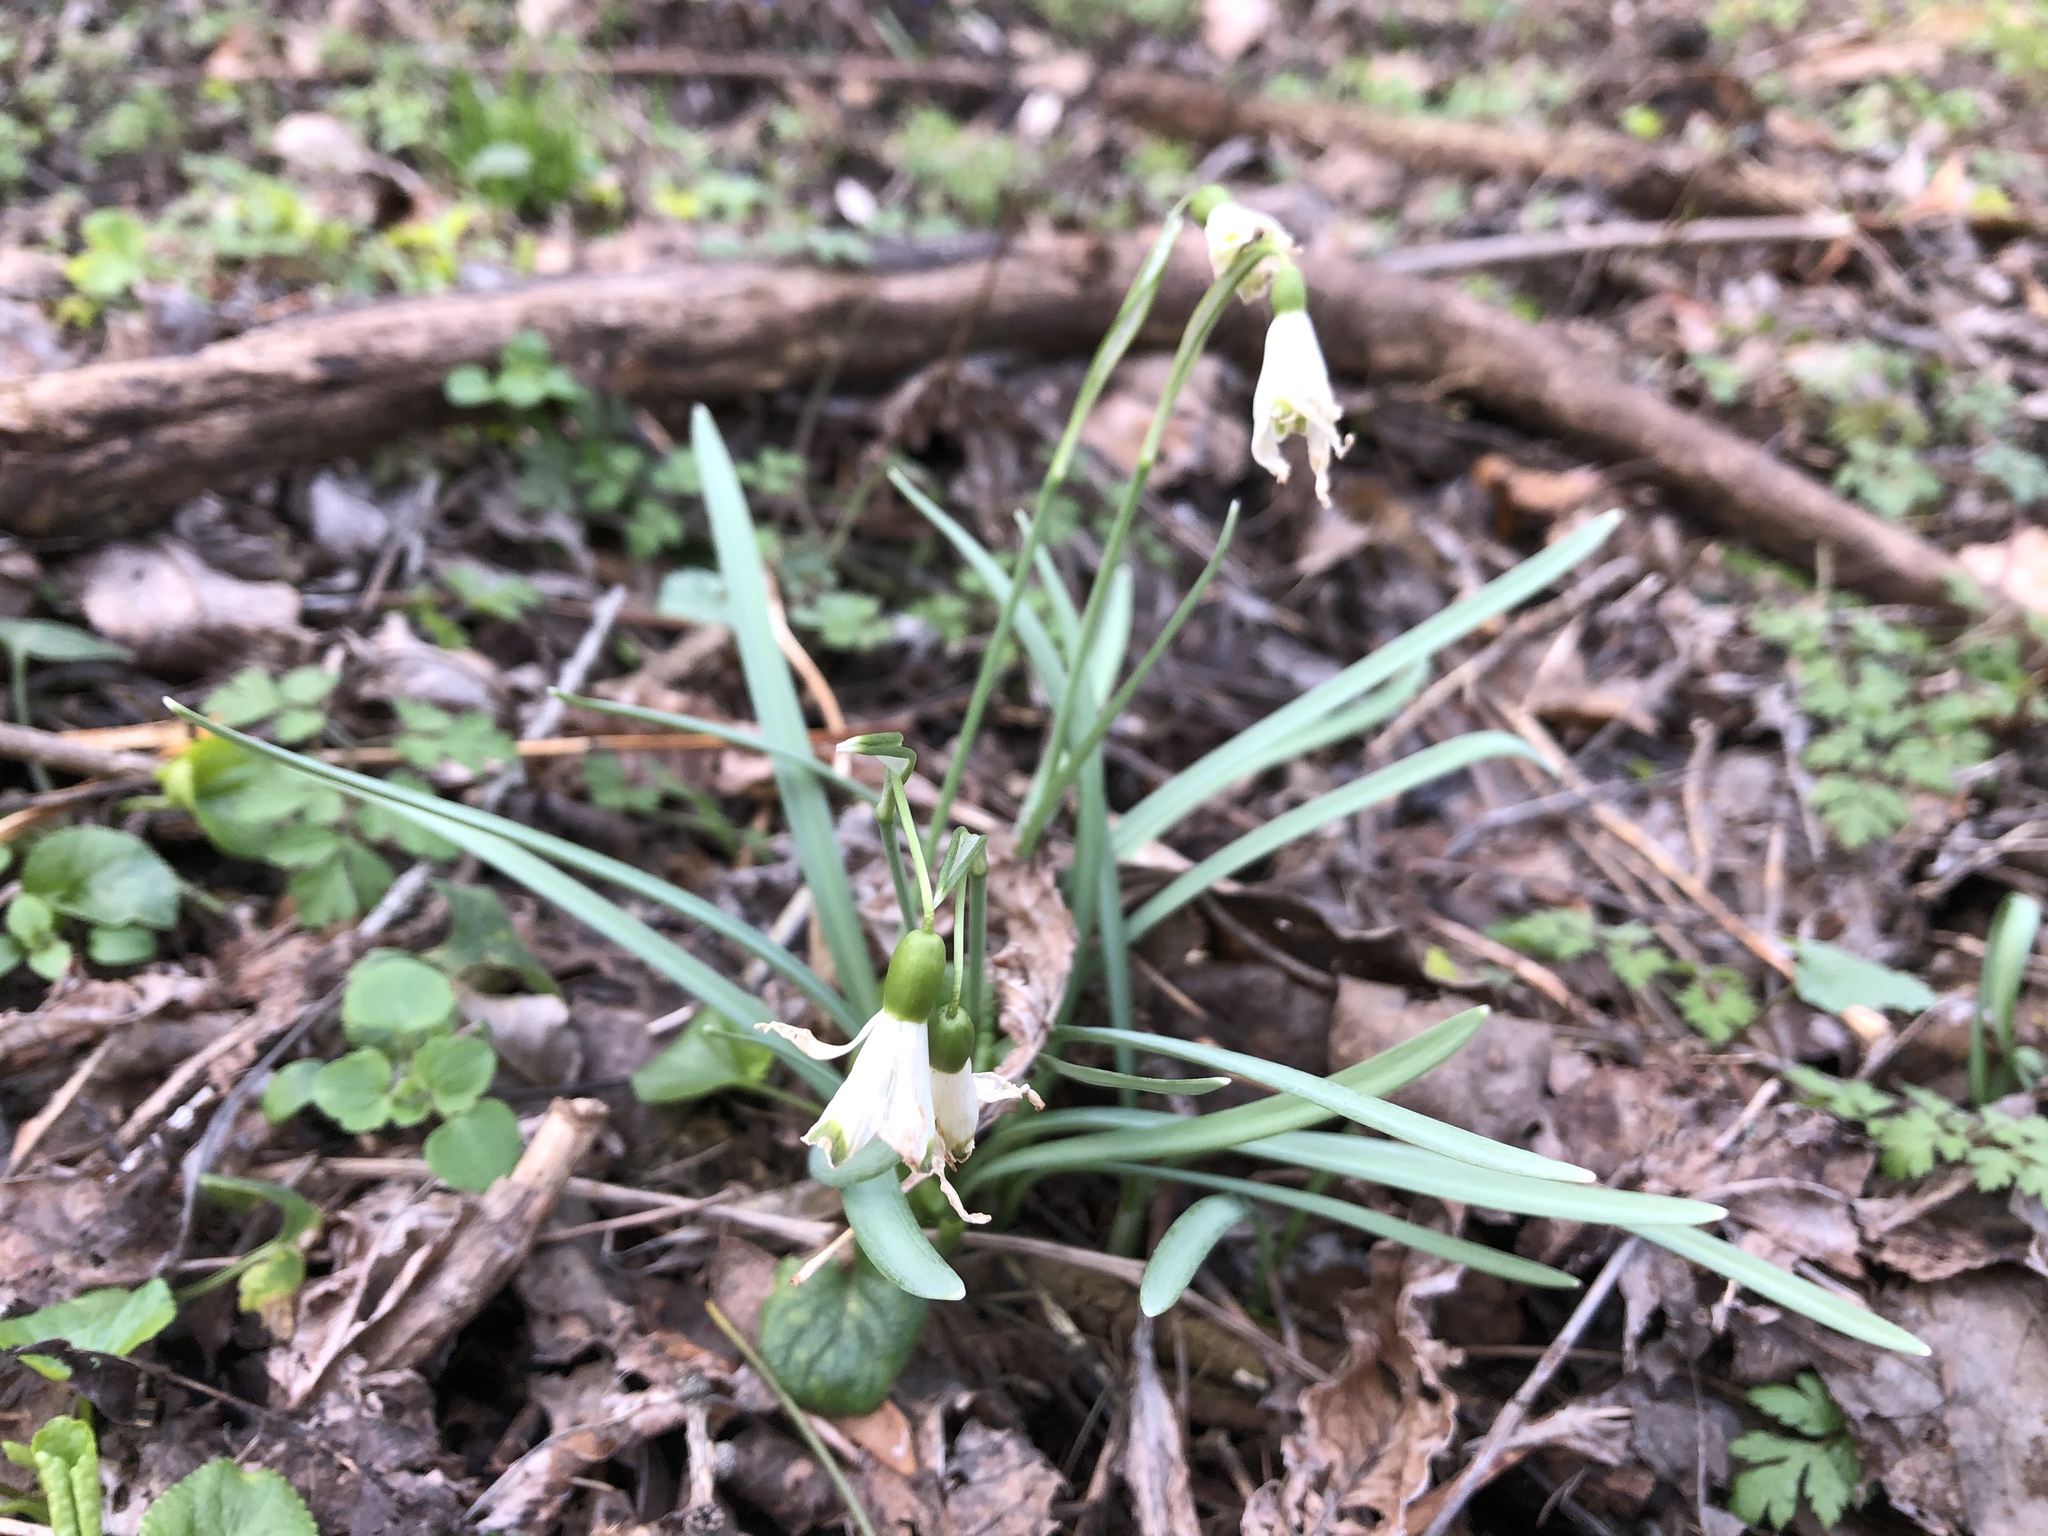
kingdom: Plantae
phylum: Tracheophyta
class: Liliopsida
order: Asparagales
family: Amaryllidaceae
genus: Galanthus
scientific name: Galanthus nivalis
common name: Snowdrop
